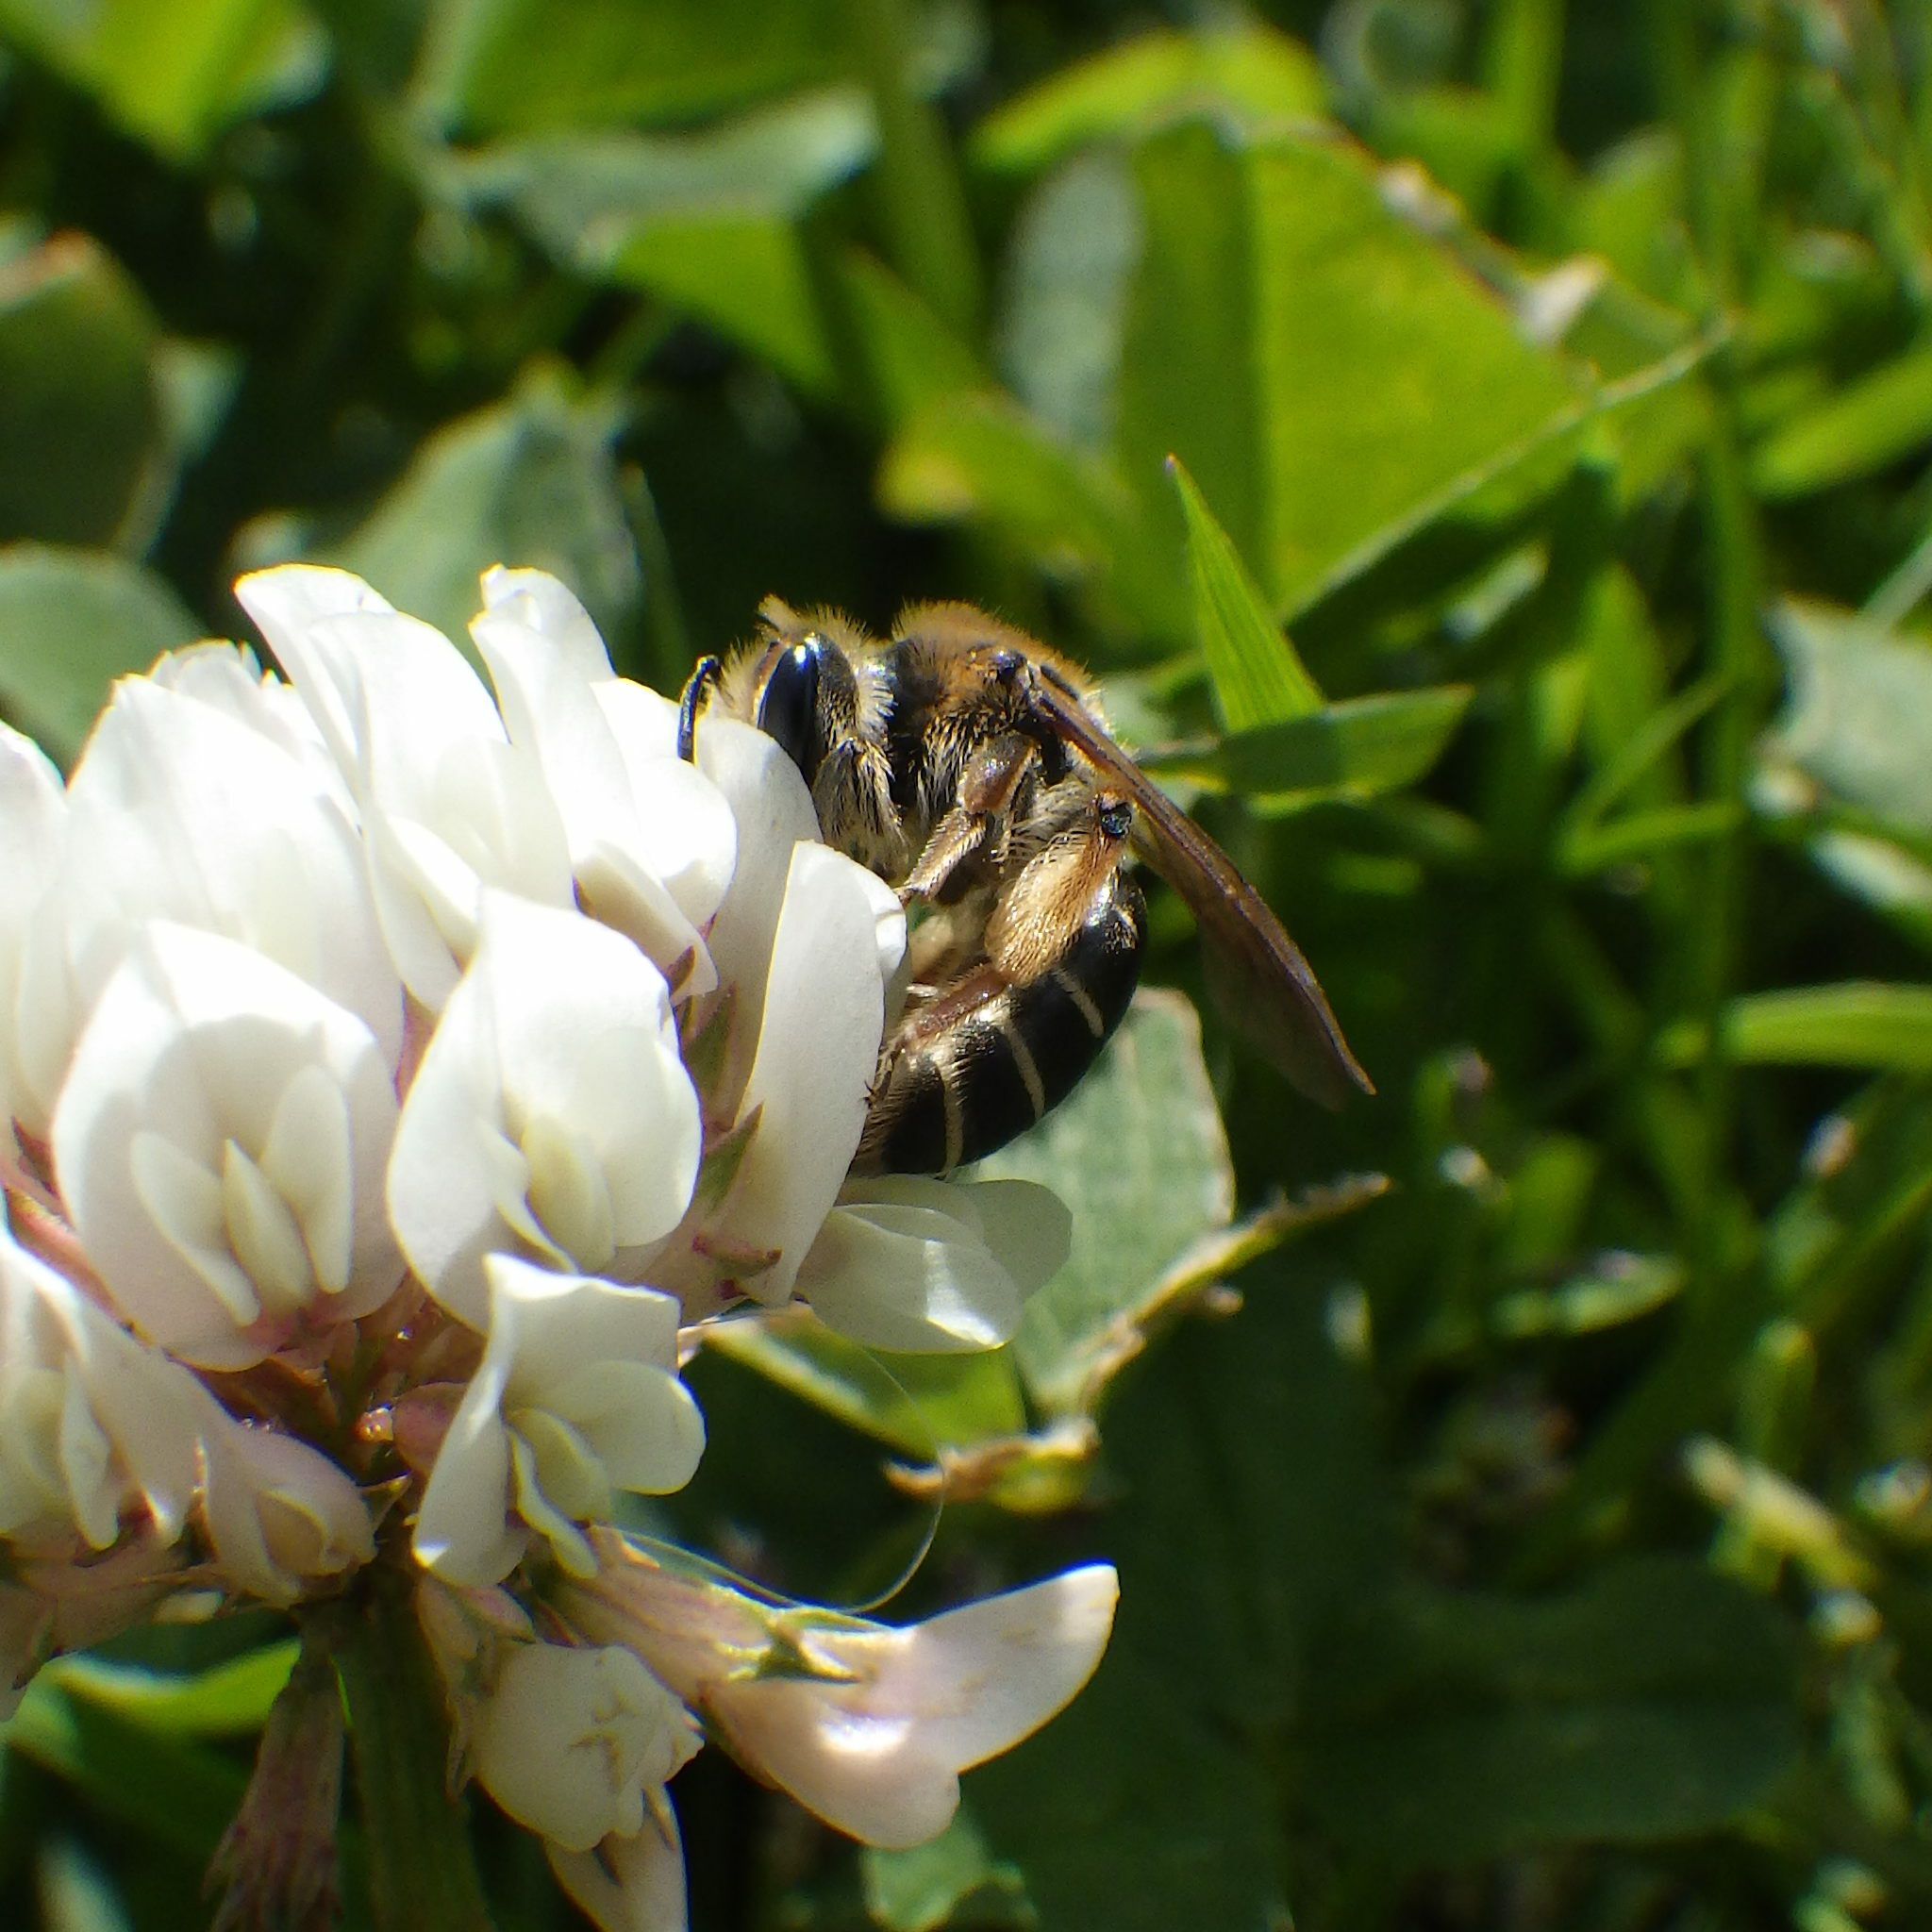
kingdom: Animalia
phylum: Arthropoda
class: Insecta
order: Hymenoptera
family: Andrenidae
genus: Andrena
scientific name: Andrena wilkella
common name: Wilke's mining bee
